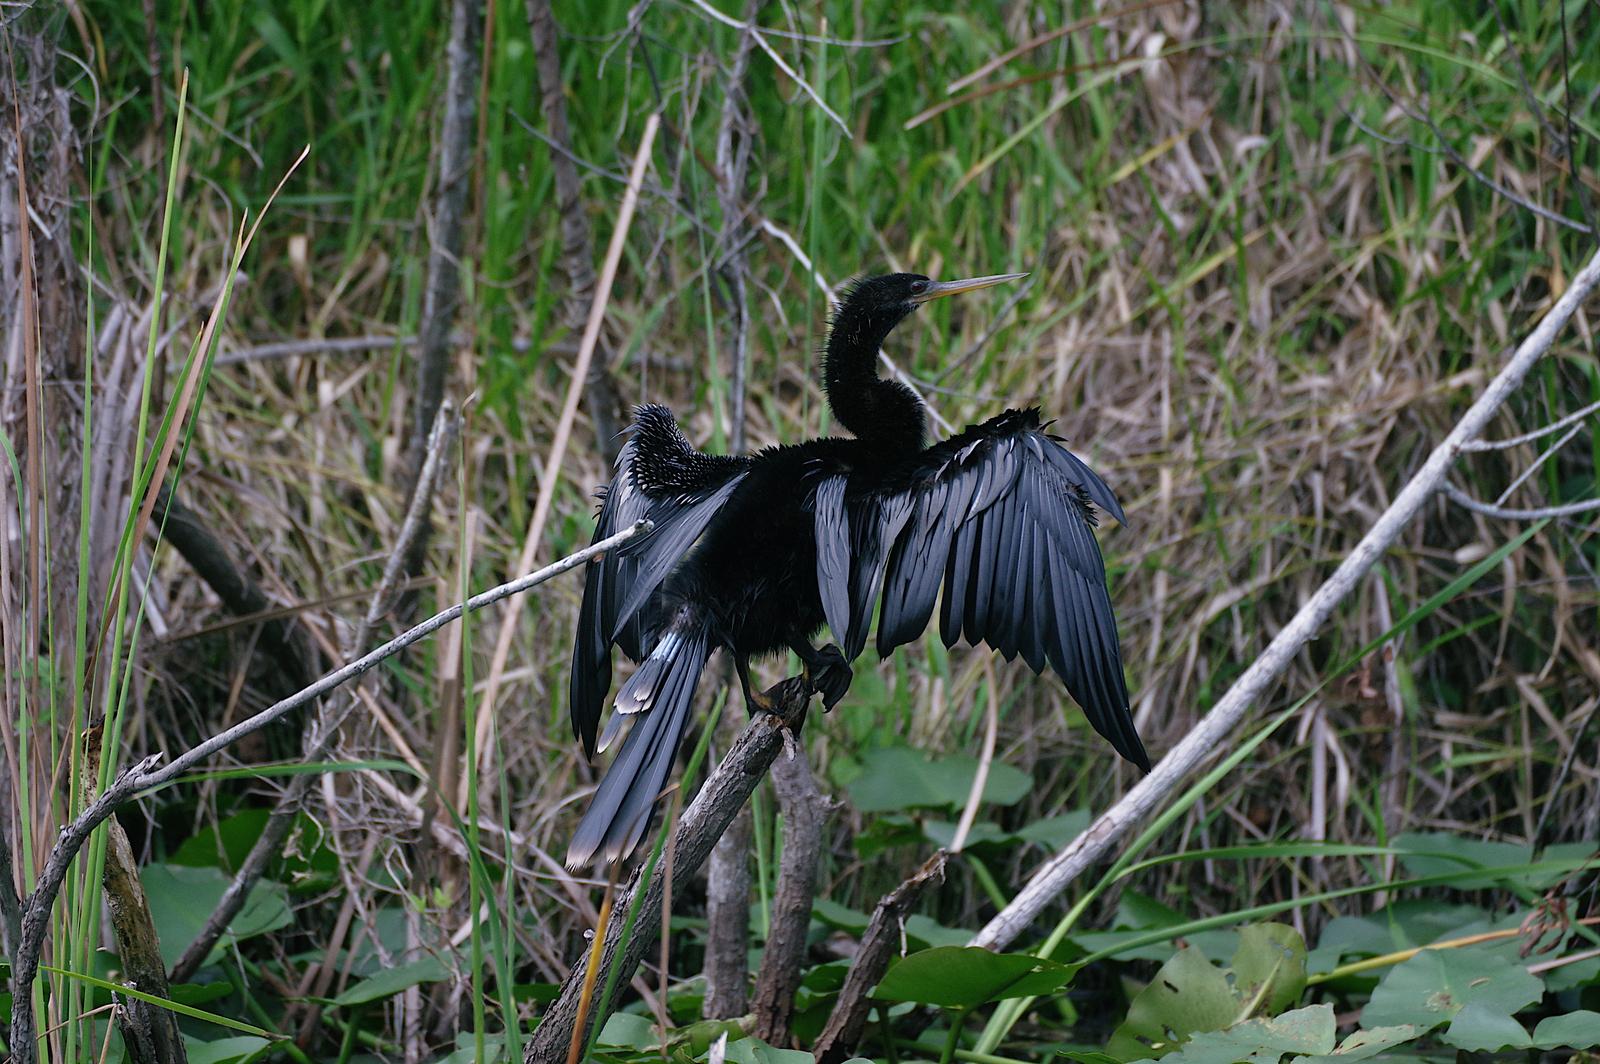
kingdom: Animalia
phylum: Chordata
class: Aves
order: Suliformes
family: Anhingidae
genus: Anhinga
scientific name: Anhinga anhinga
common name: Anhinga
